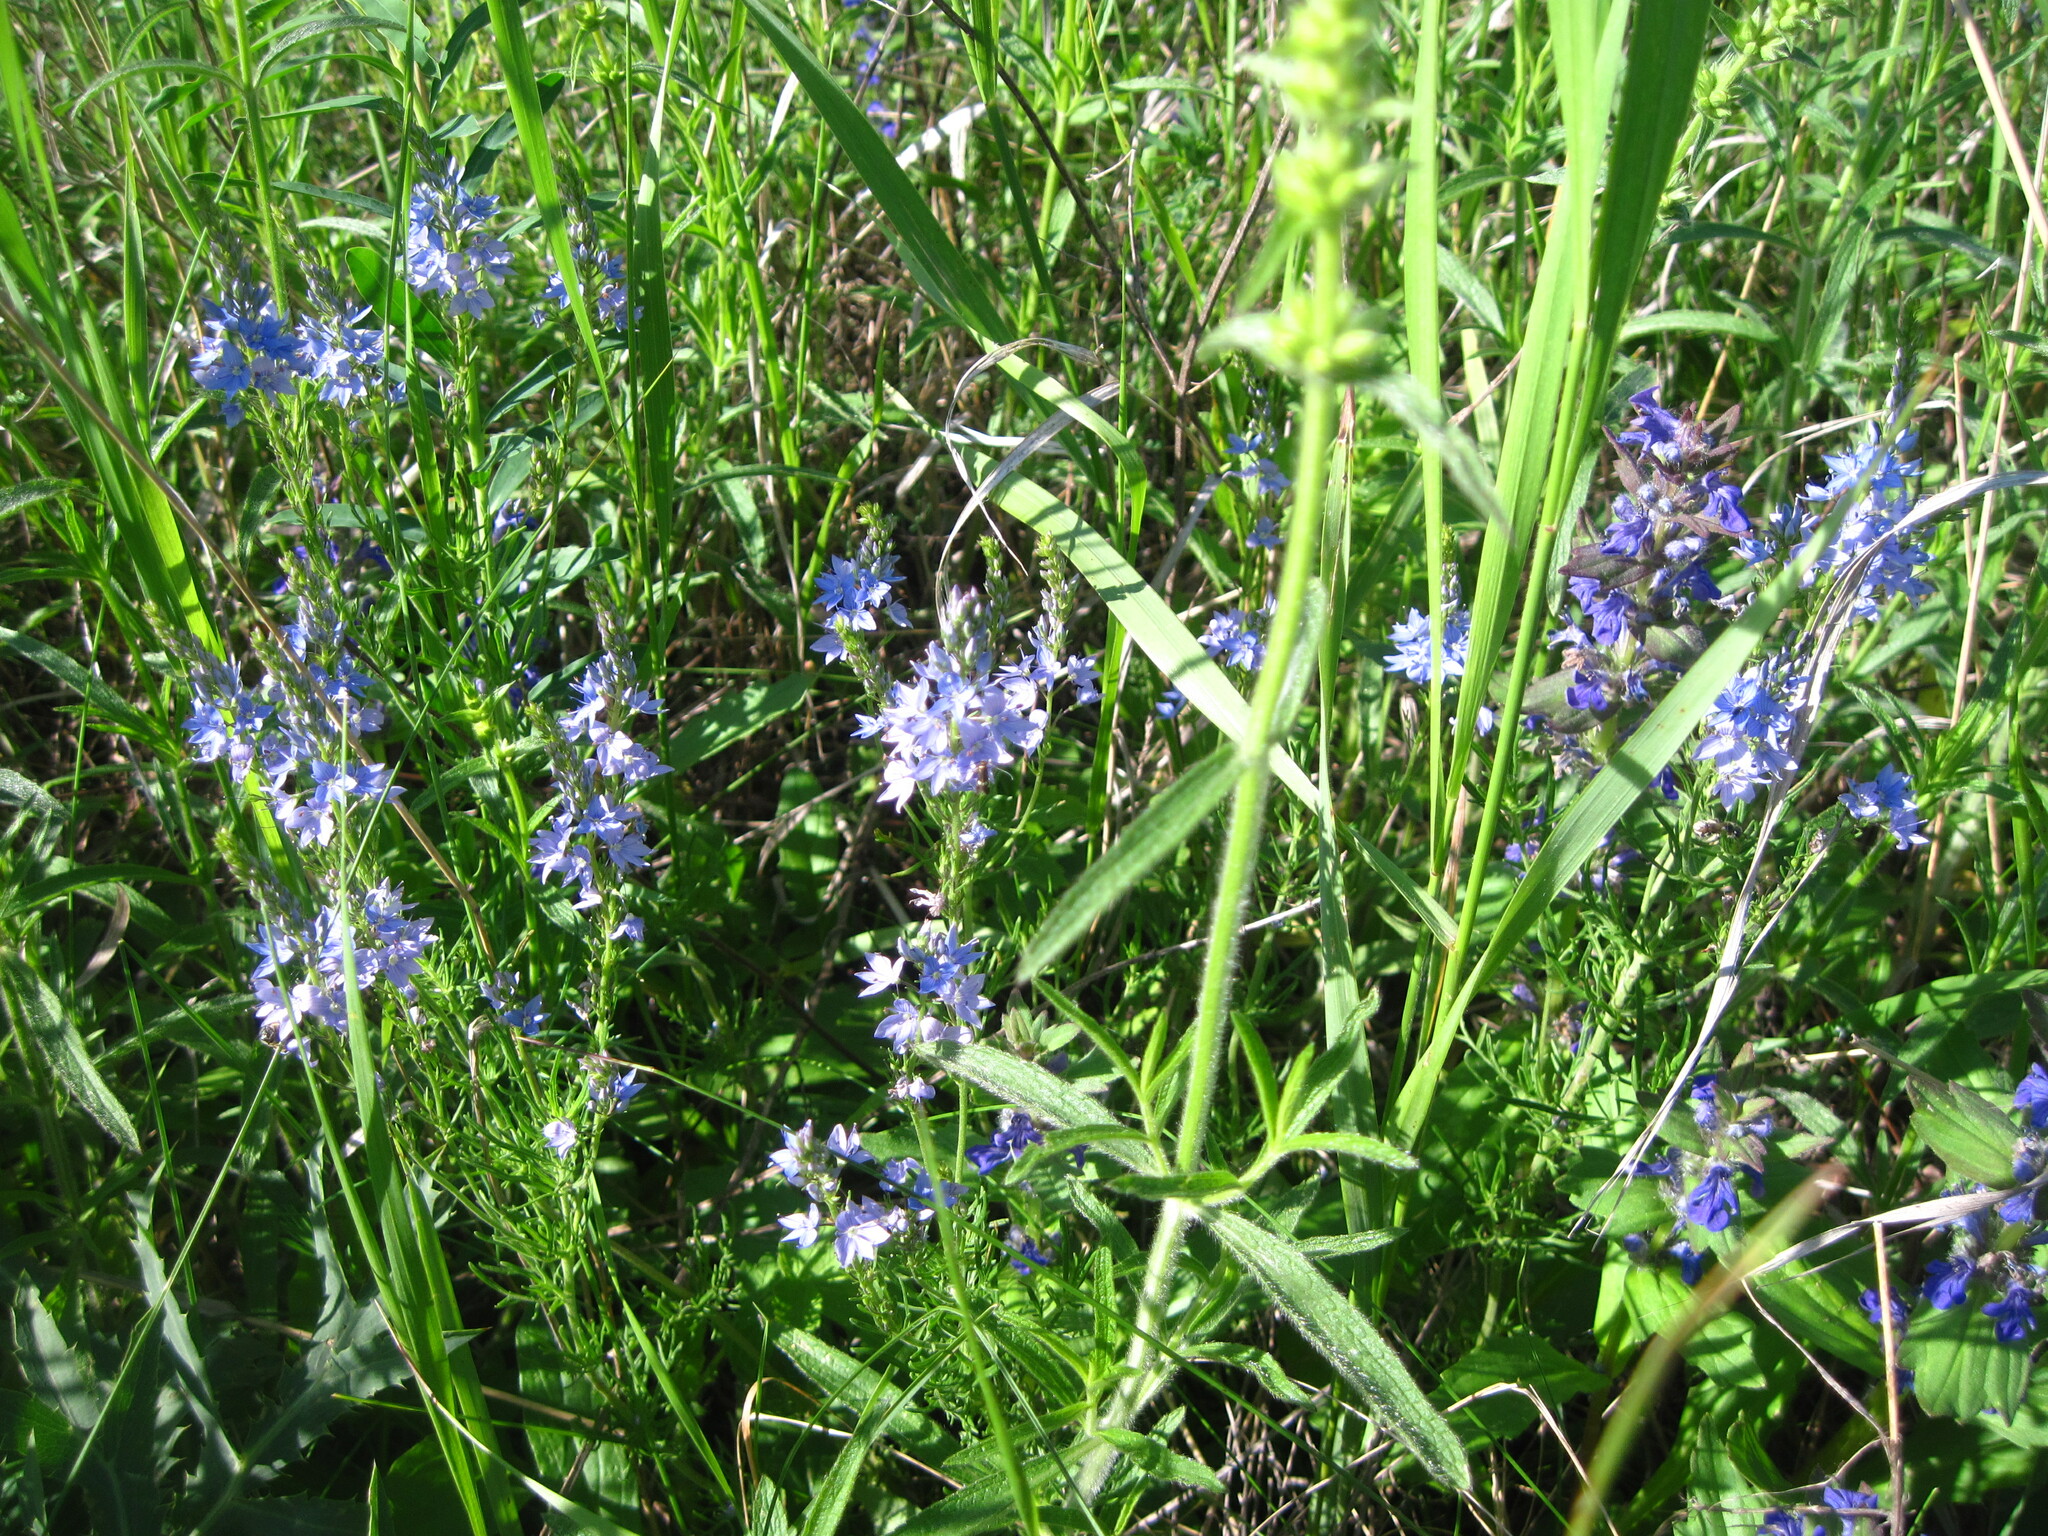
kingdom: Plantae
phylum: Tracheophyta
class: Magnoliopsida
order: Lamiales
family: Plantaginaceae
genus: Veronica
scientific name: Veronica austriaca
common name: Large speedwell
